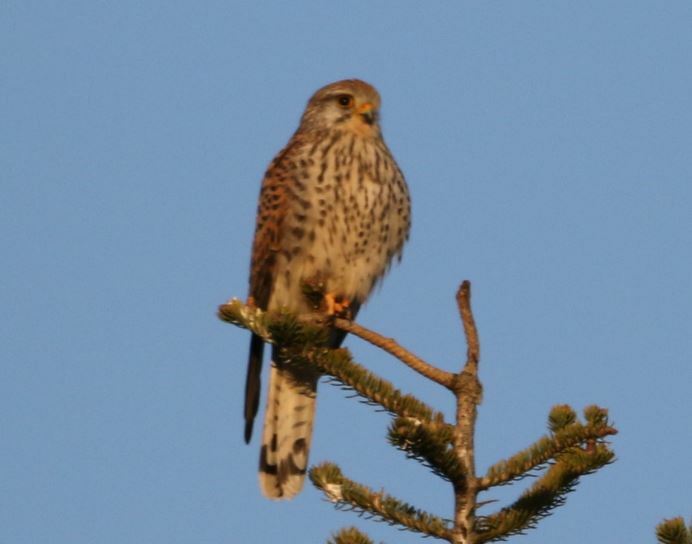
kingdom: Animalia
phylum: Chordata
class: Aves
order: Falconiformes
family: Falconidae
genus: Falco
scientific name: Falco tinnunculus
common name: Common kestrel
